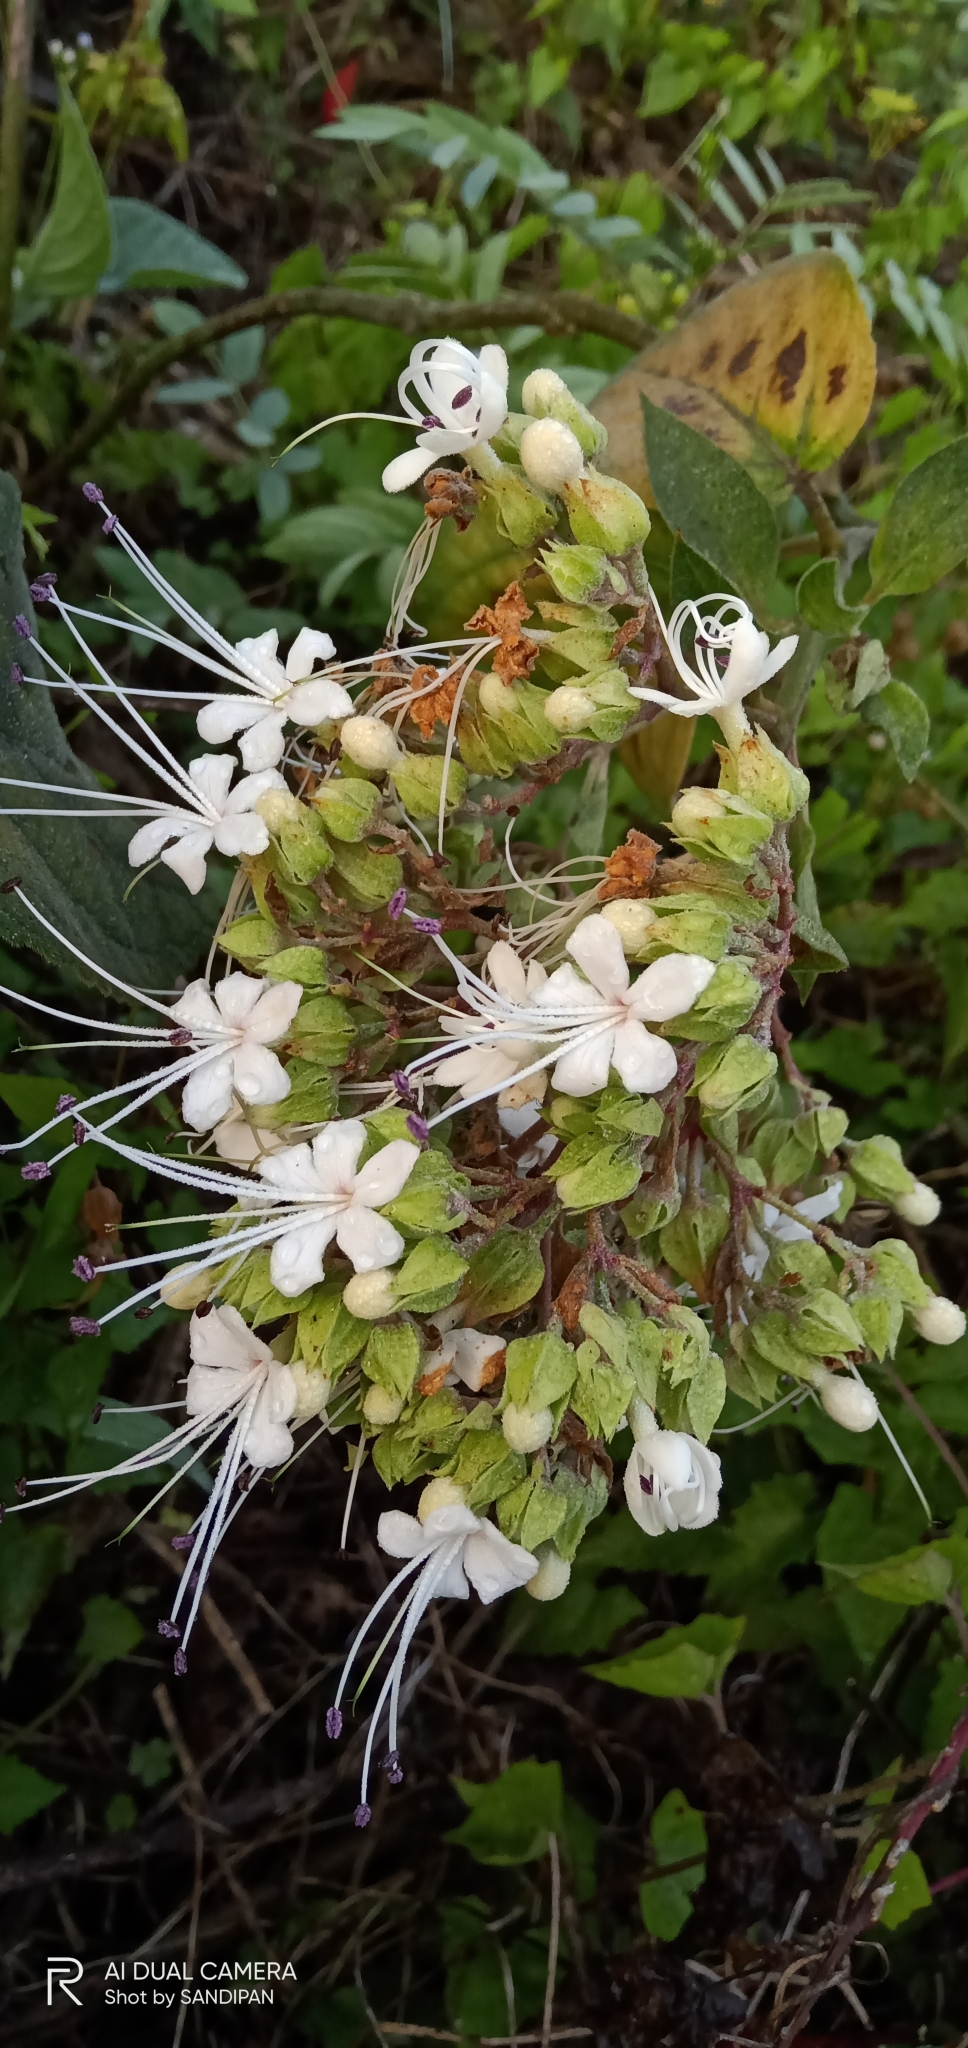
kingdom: Plantae
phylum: Tracheophyta
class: Magnoliopsida
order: Lamiales
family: Lamiaceae
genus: Clerodendrum
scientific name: Clerodendrum infortunatum
